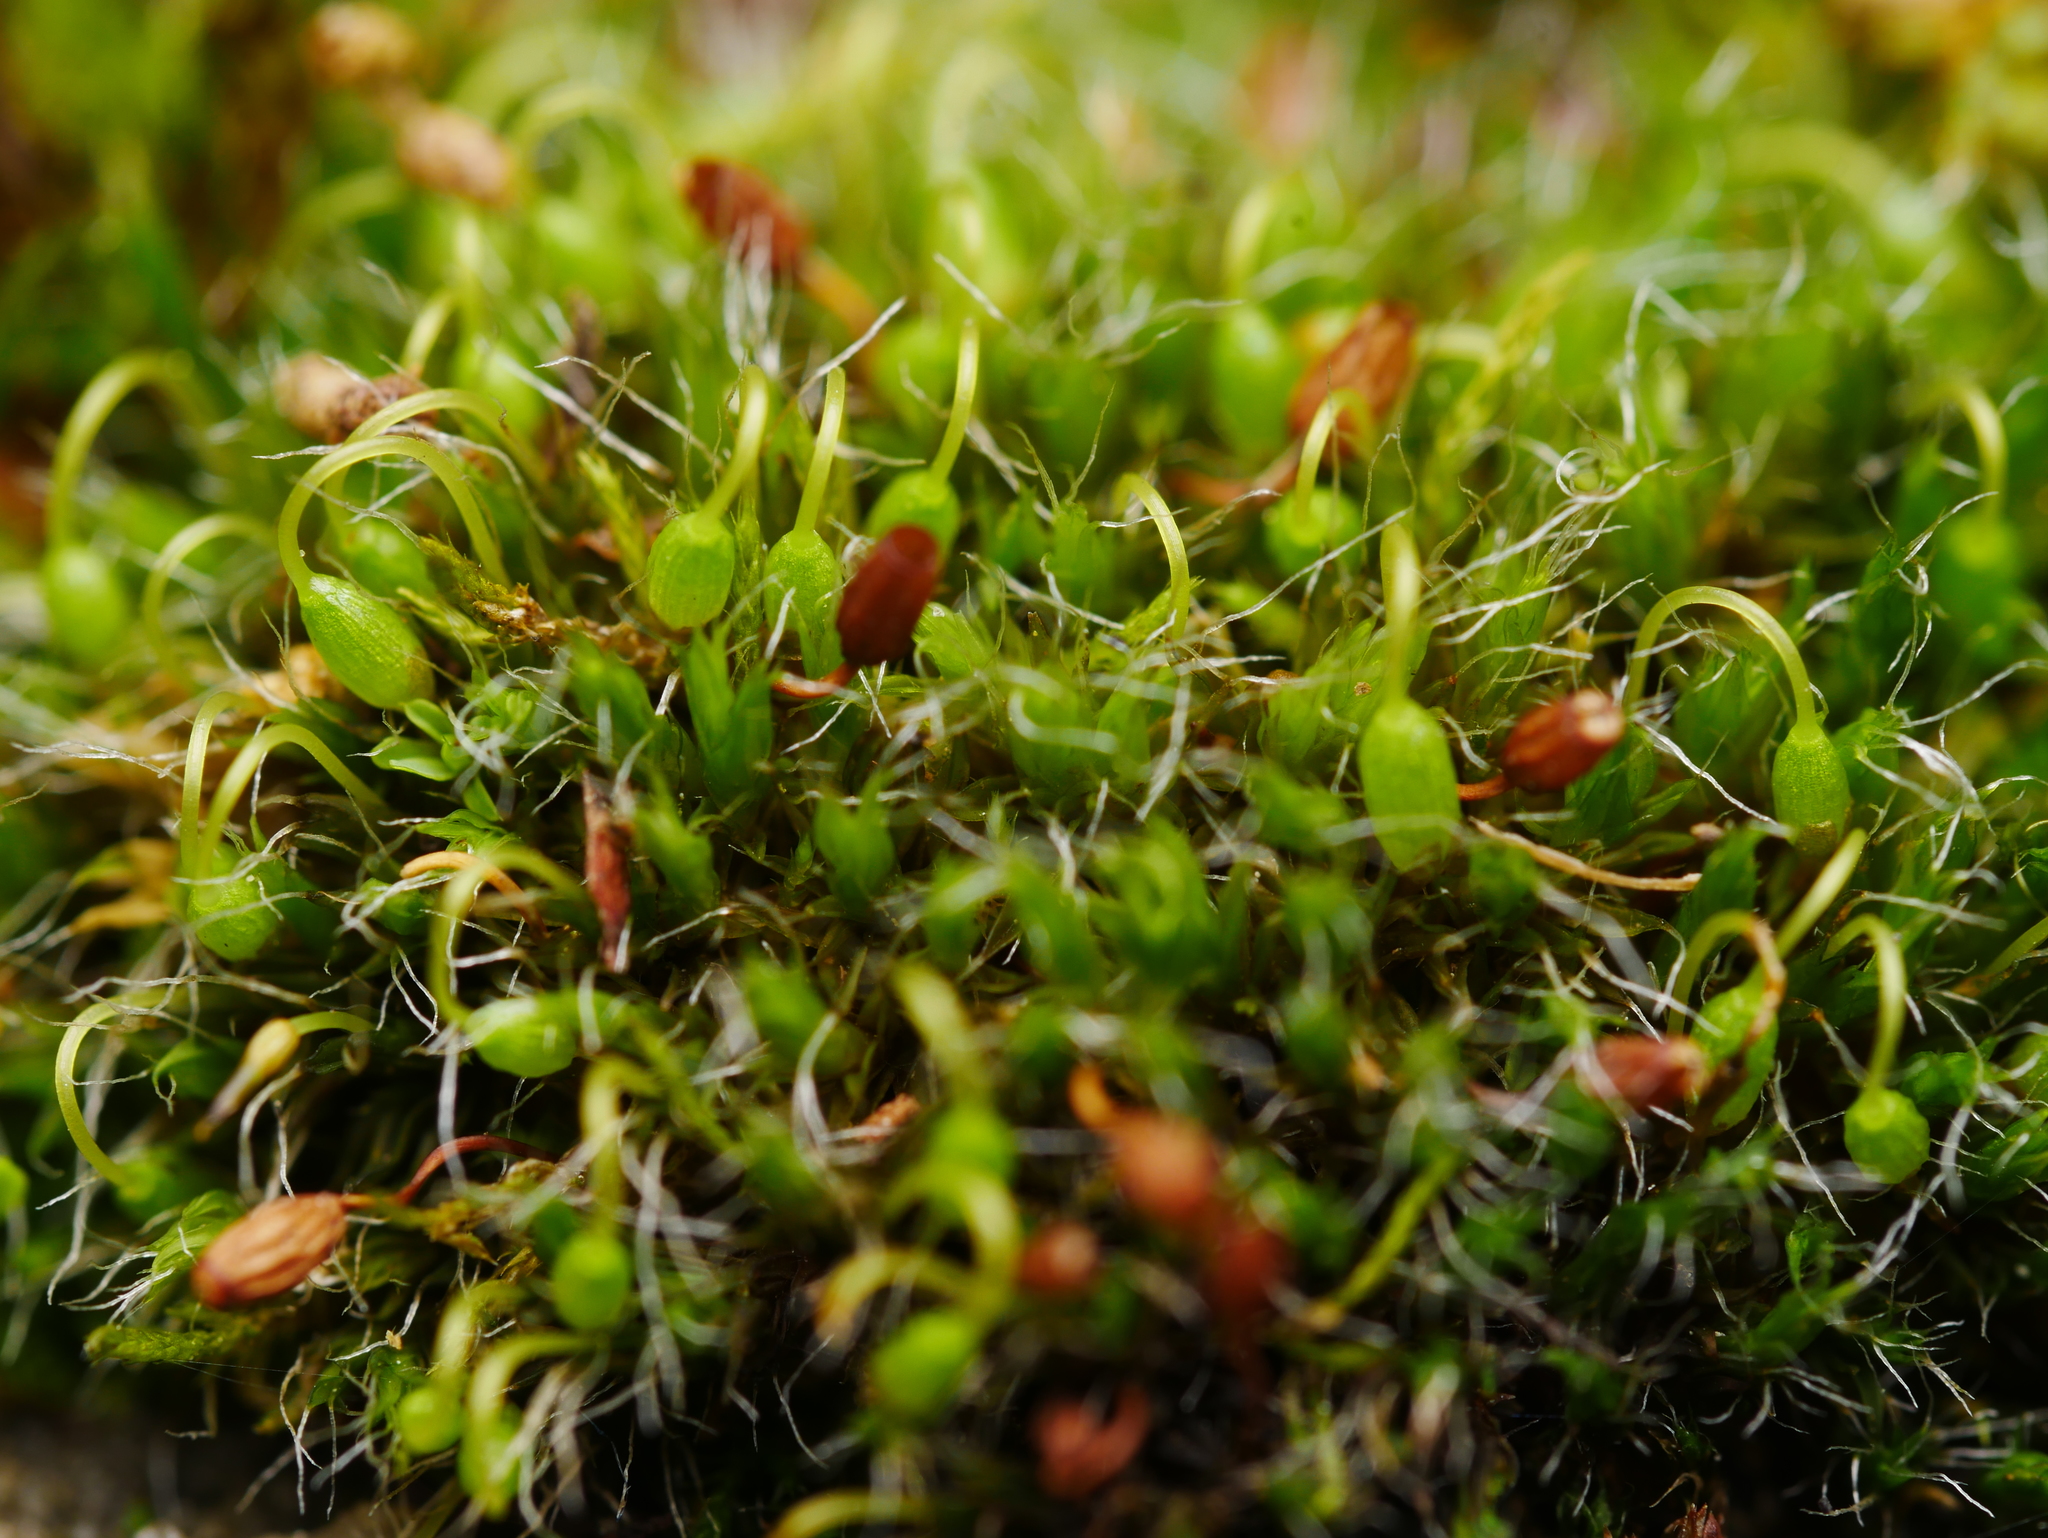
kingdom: Plantae
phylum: Bryophyta
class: Bryopsida
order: Grimmiales
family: Grimmiaceae
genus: Grimmia
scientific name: Grimmia pulvinata
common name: Grey-cushioned grimmia
